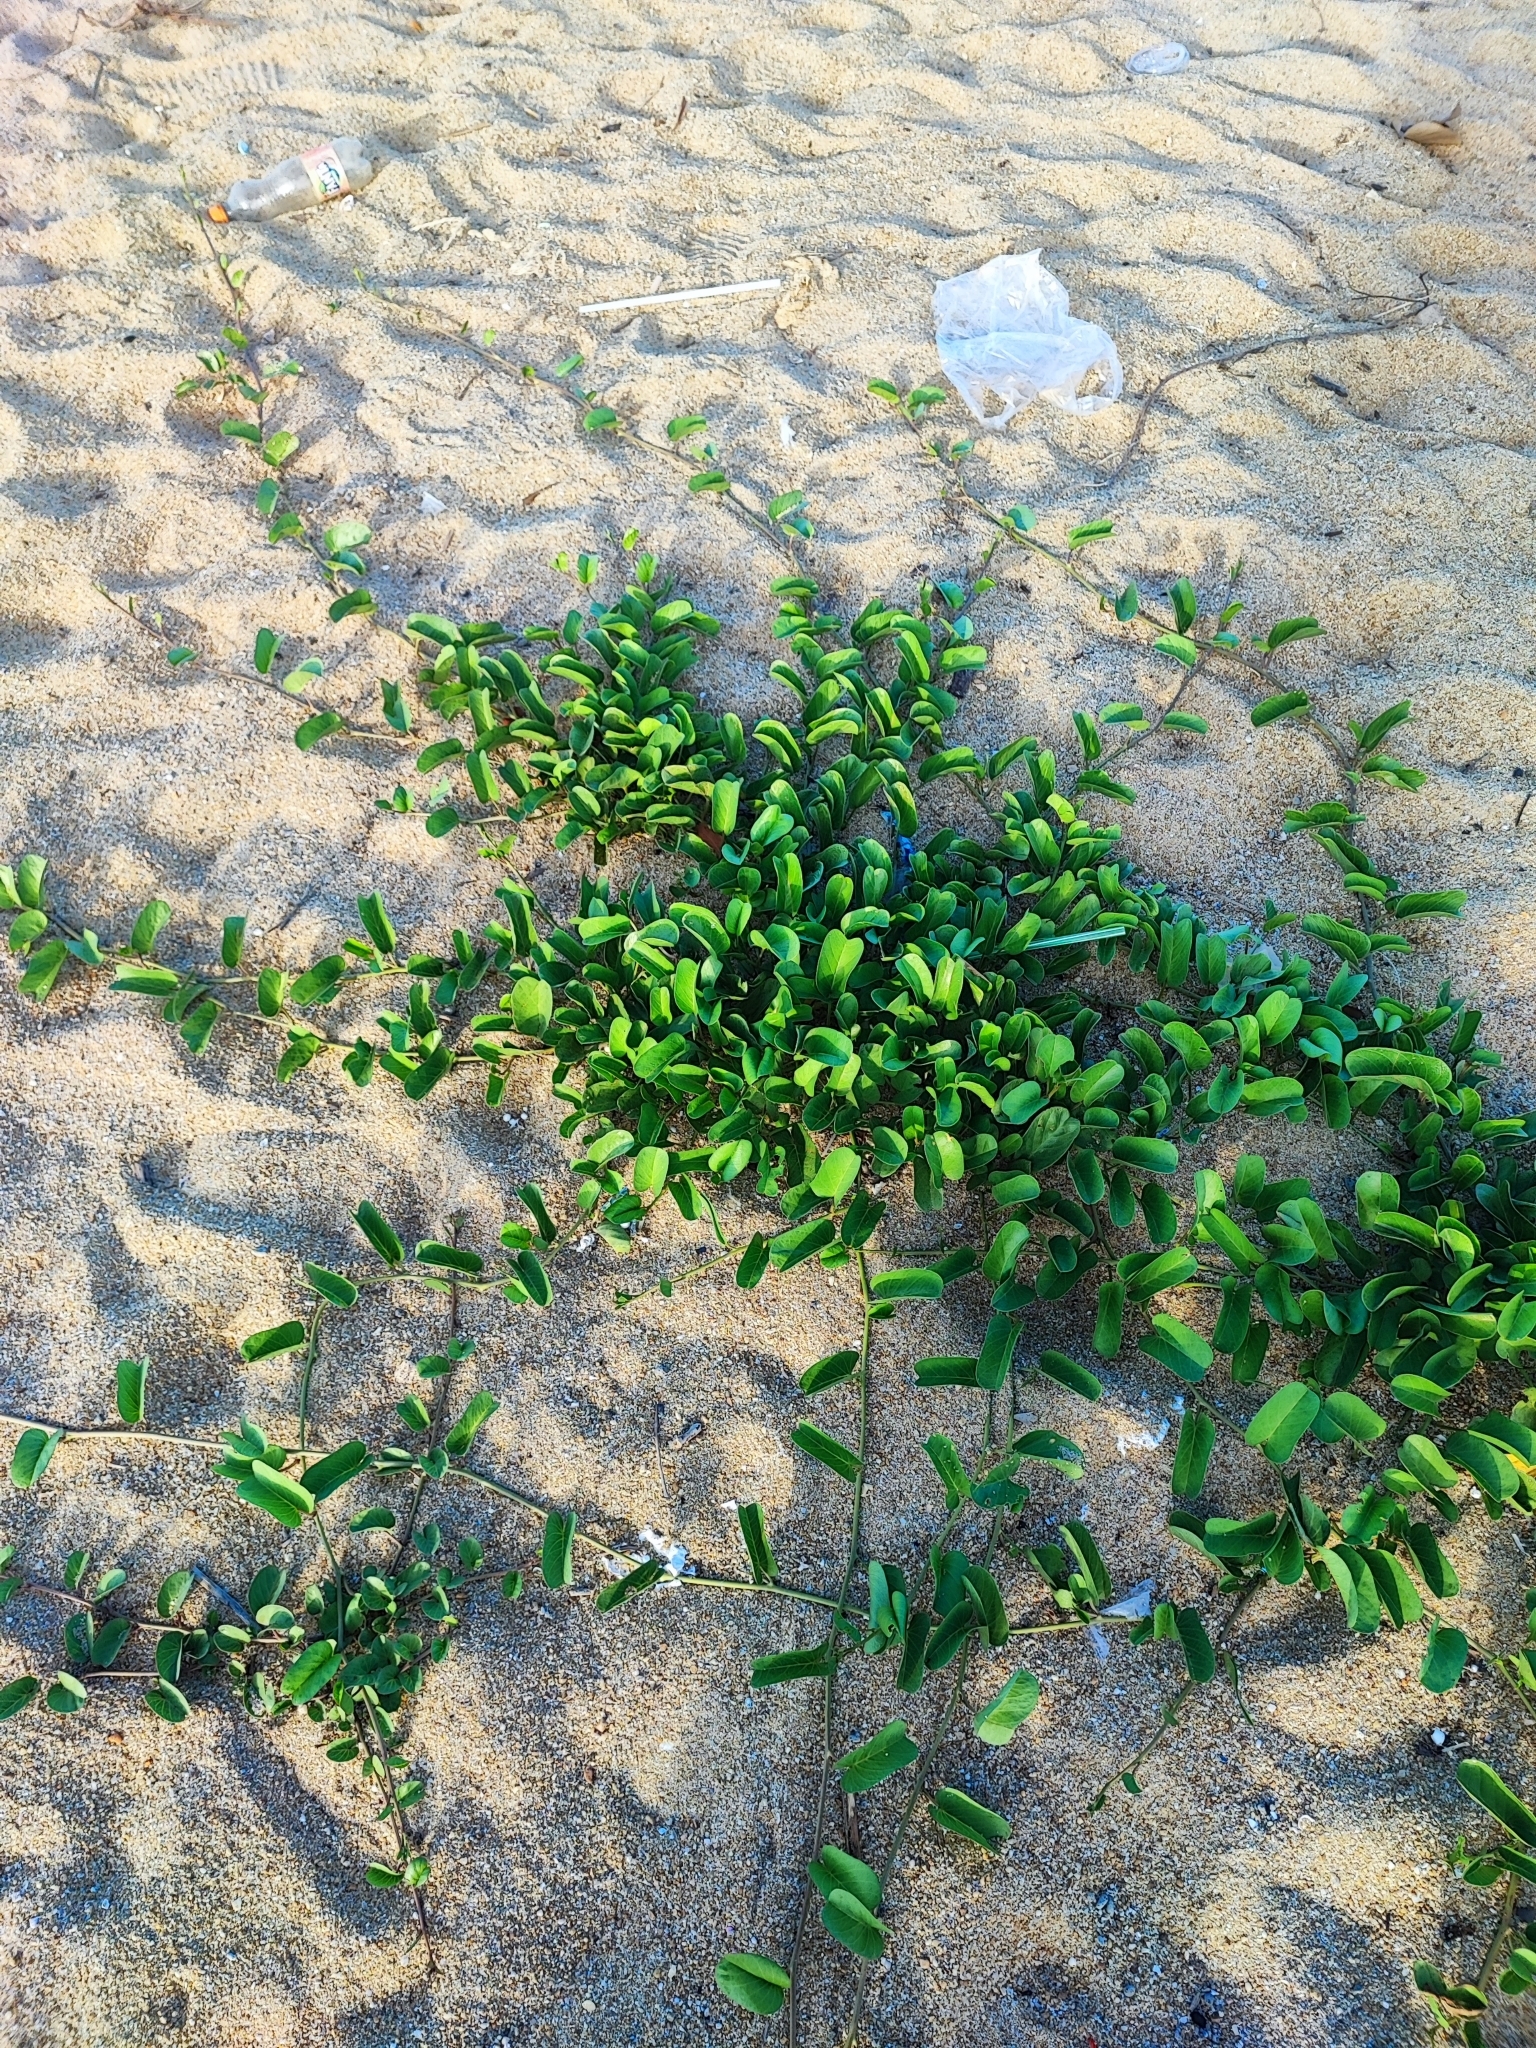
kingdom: Plantae
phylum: Tracheophyta
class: Magnoliopsida
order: Solanales
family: Convolvulaceae
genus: Ipomoea
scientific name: Ipomoea pes-caprae
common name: Beach morning glory
